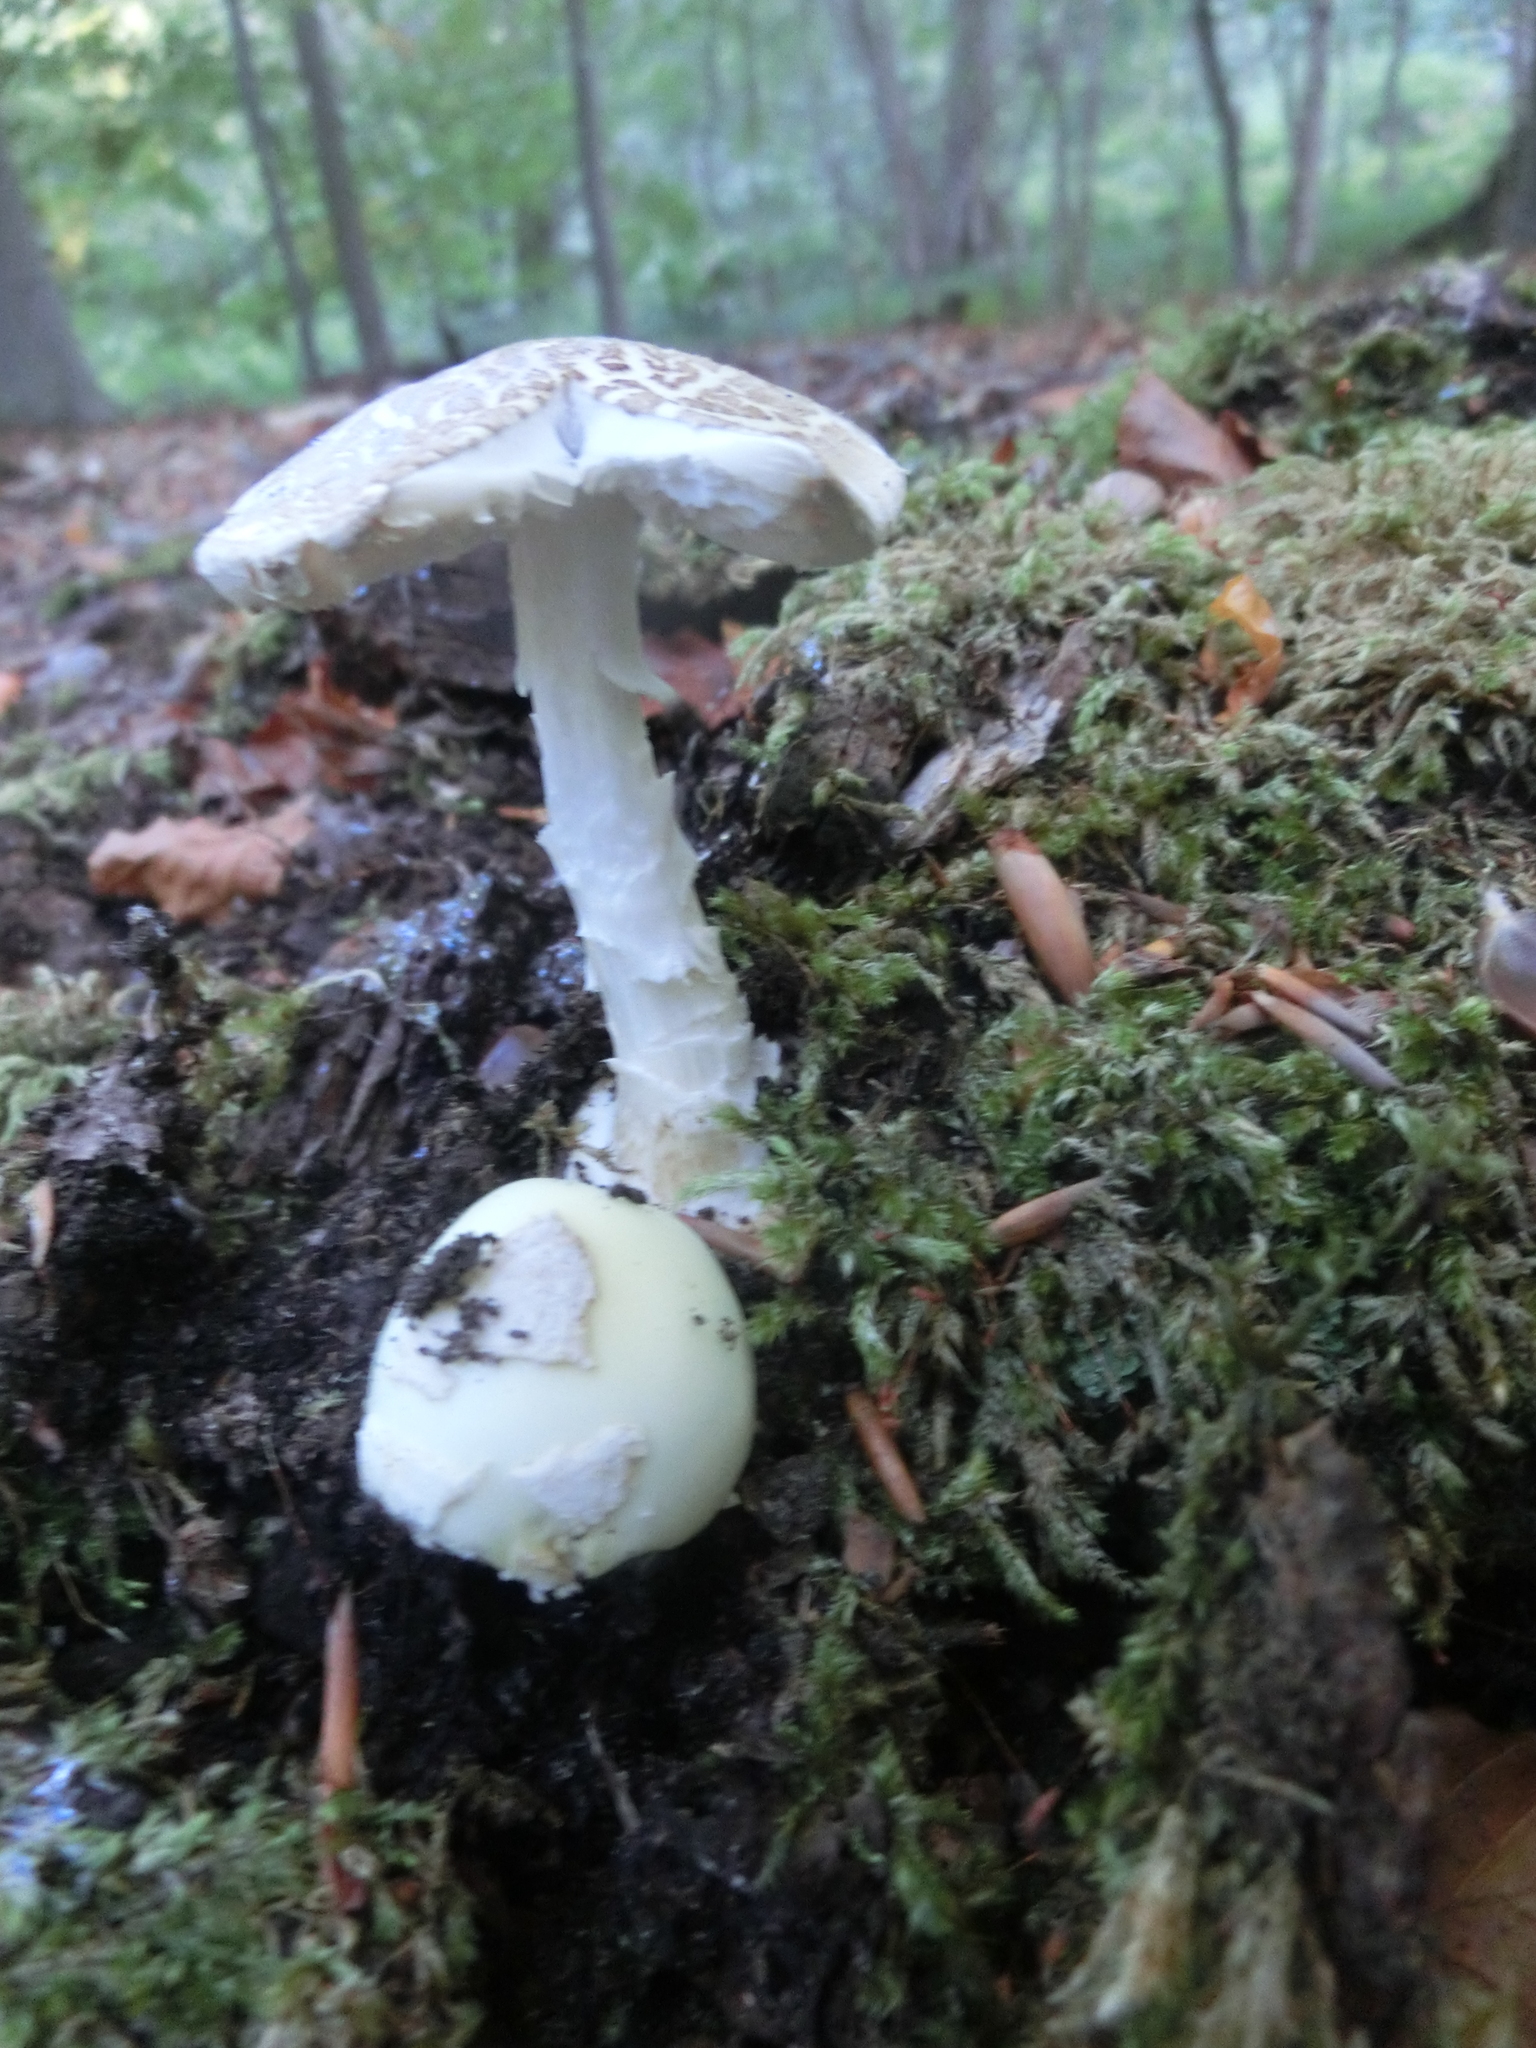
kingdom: Fungi
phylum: Basidiomycota
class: Agaricomycetes
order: Agaricales
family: Amanitaceae
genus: Amanita
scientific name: Amanita citrina
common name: False death-cap
